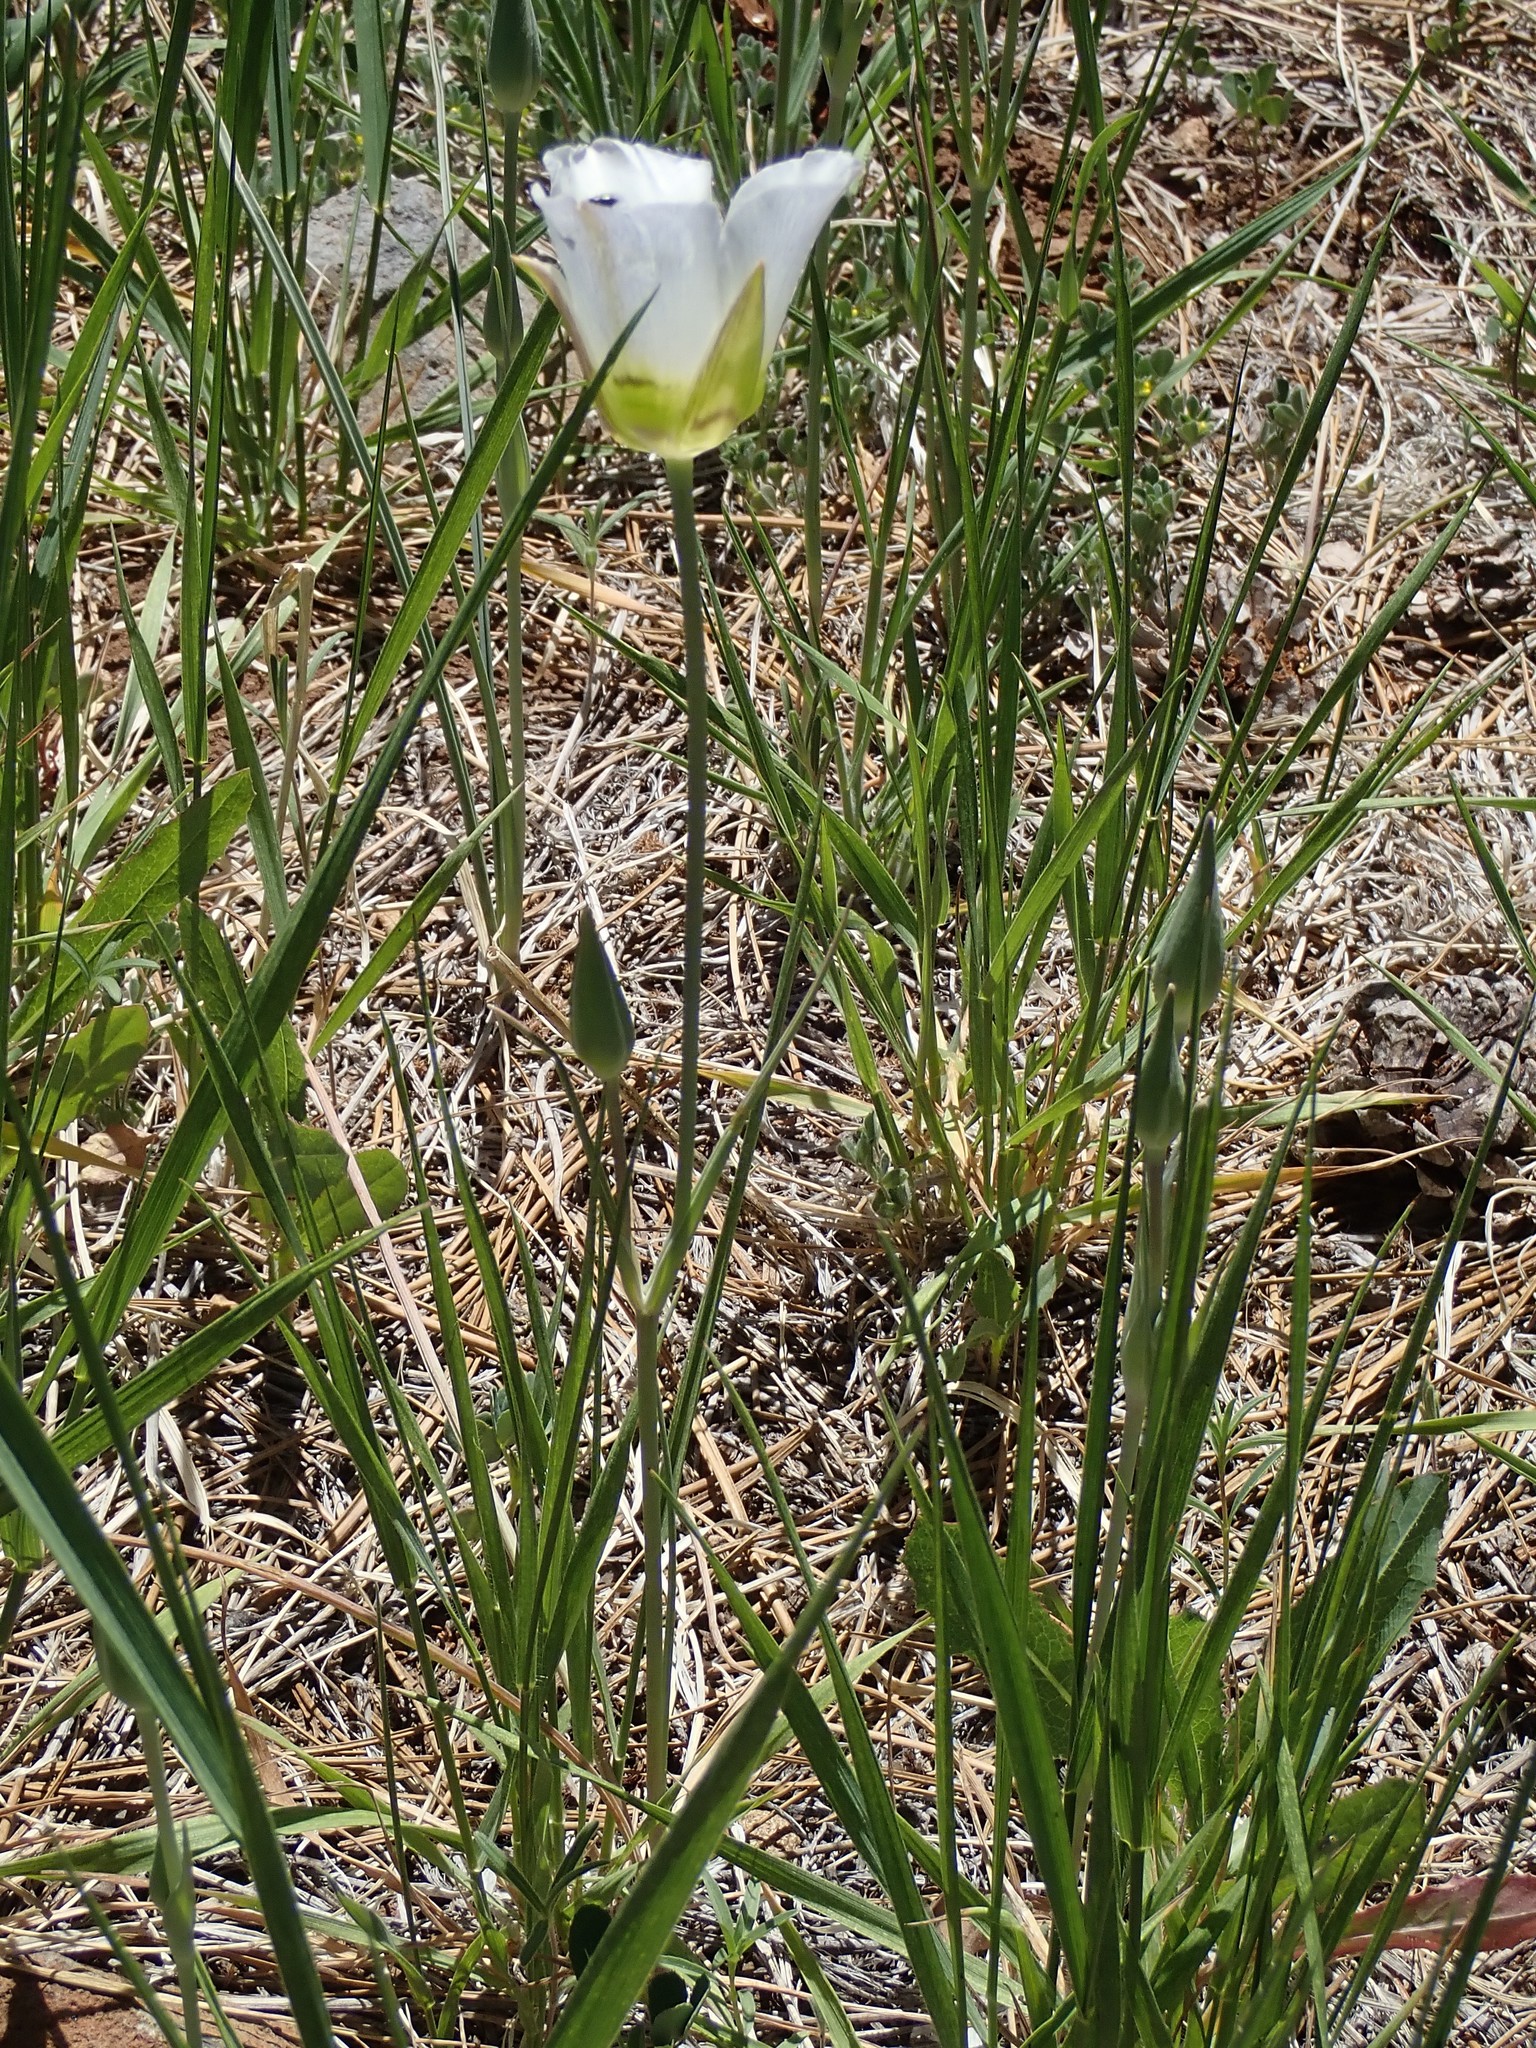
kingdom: Plantae
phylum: Tracheophyta
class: Liliopsida
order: Liliales
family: Liliaceae
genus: Calochortus
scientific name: Calochortus ambiguus
